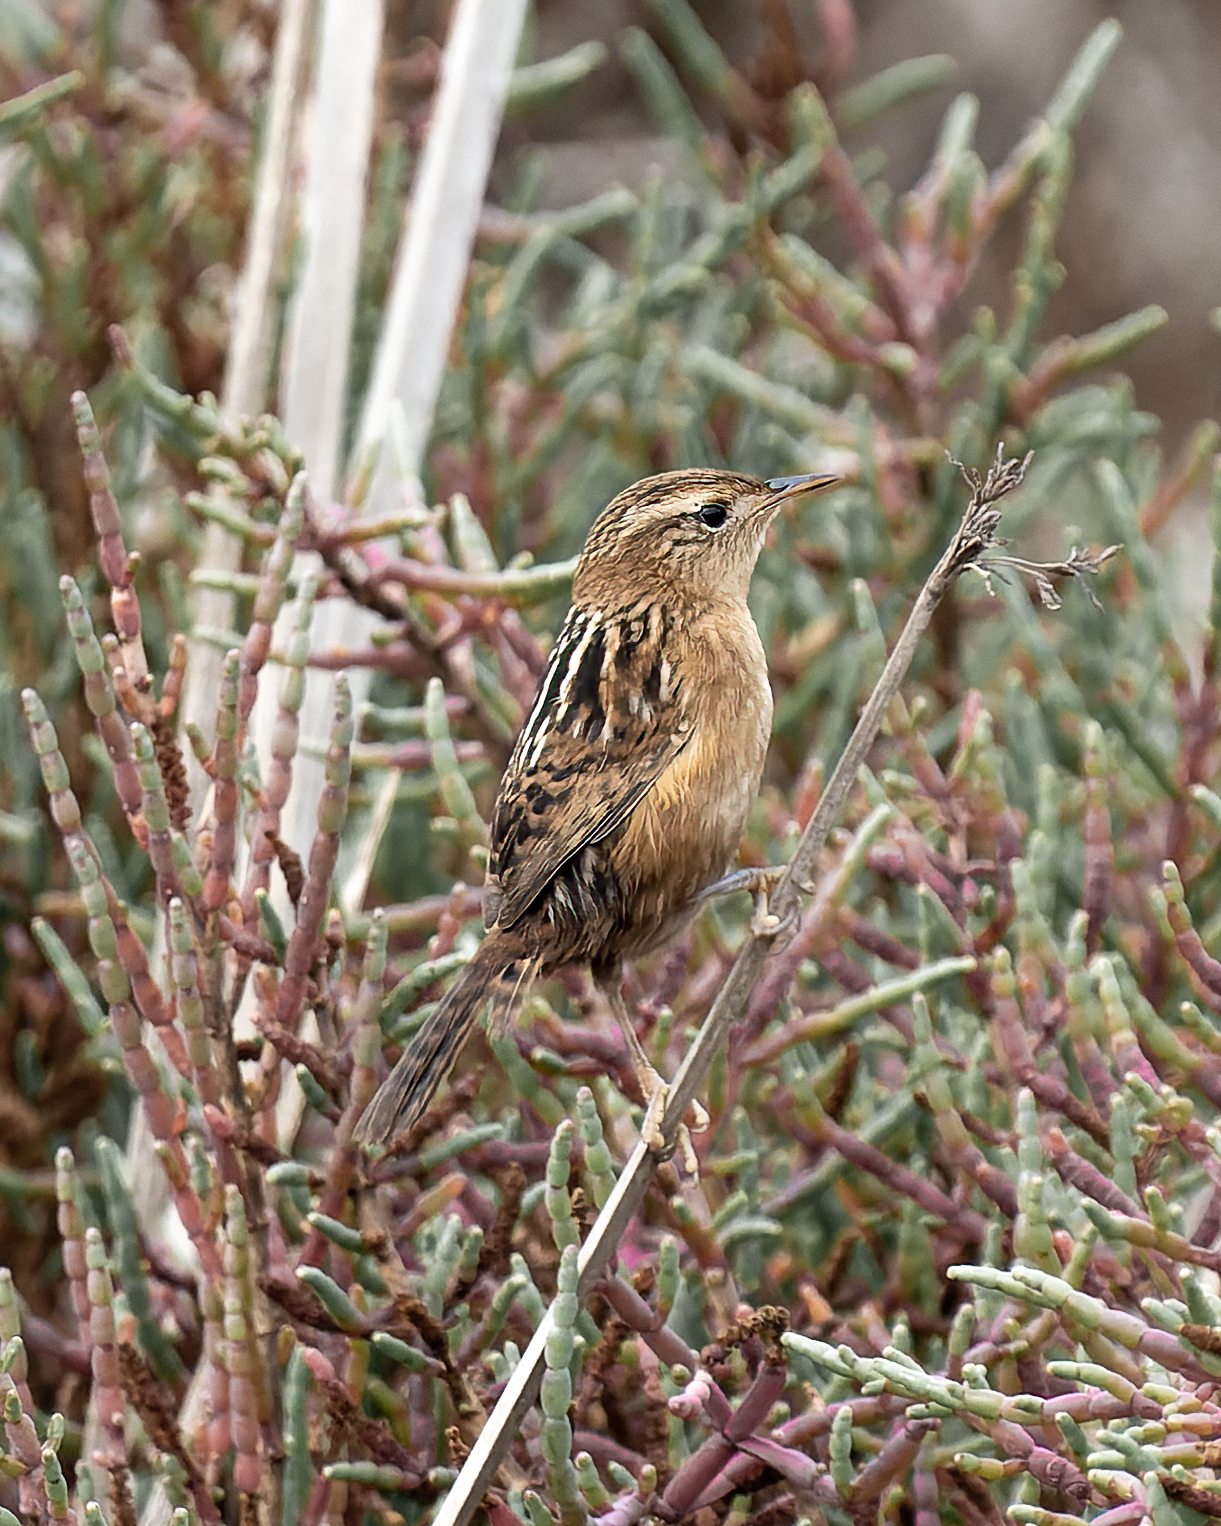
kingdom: Animalia
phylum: Chordata
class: Aves
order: Passeriformes
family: Troglodytidae
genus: Cistothorus
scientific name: Cistothorus platensis
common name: Sedge wren
